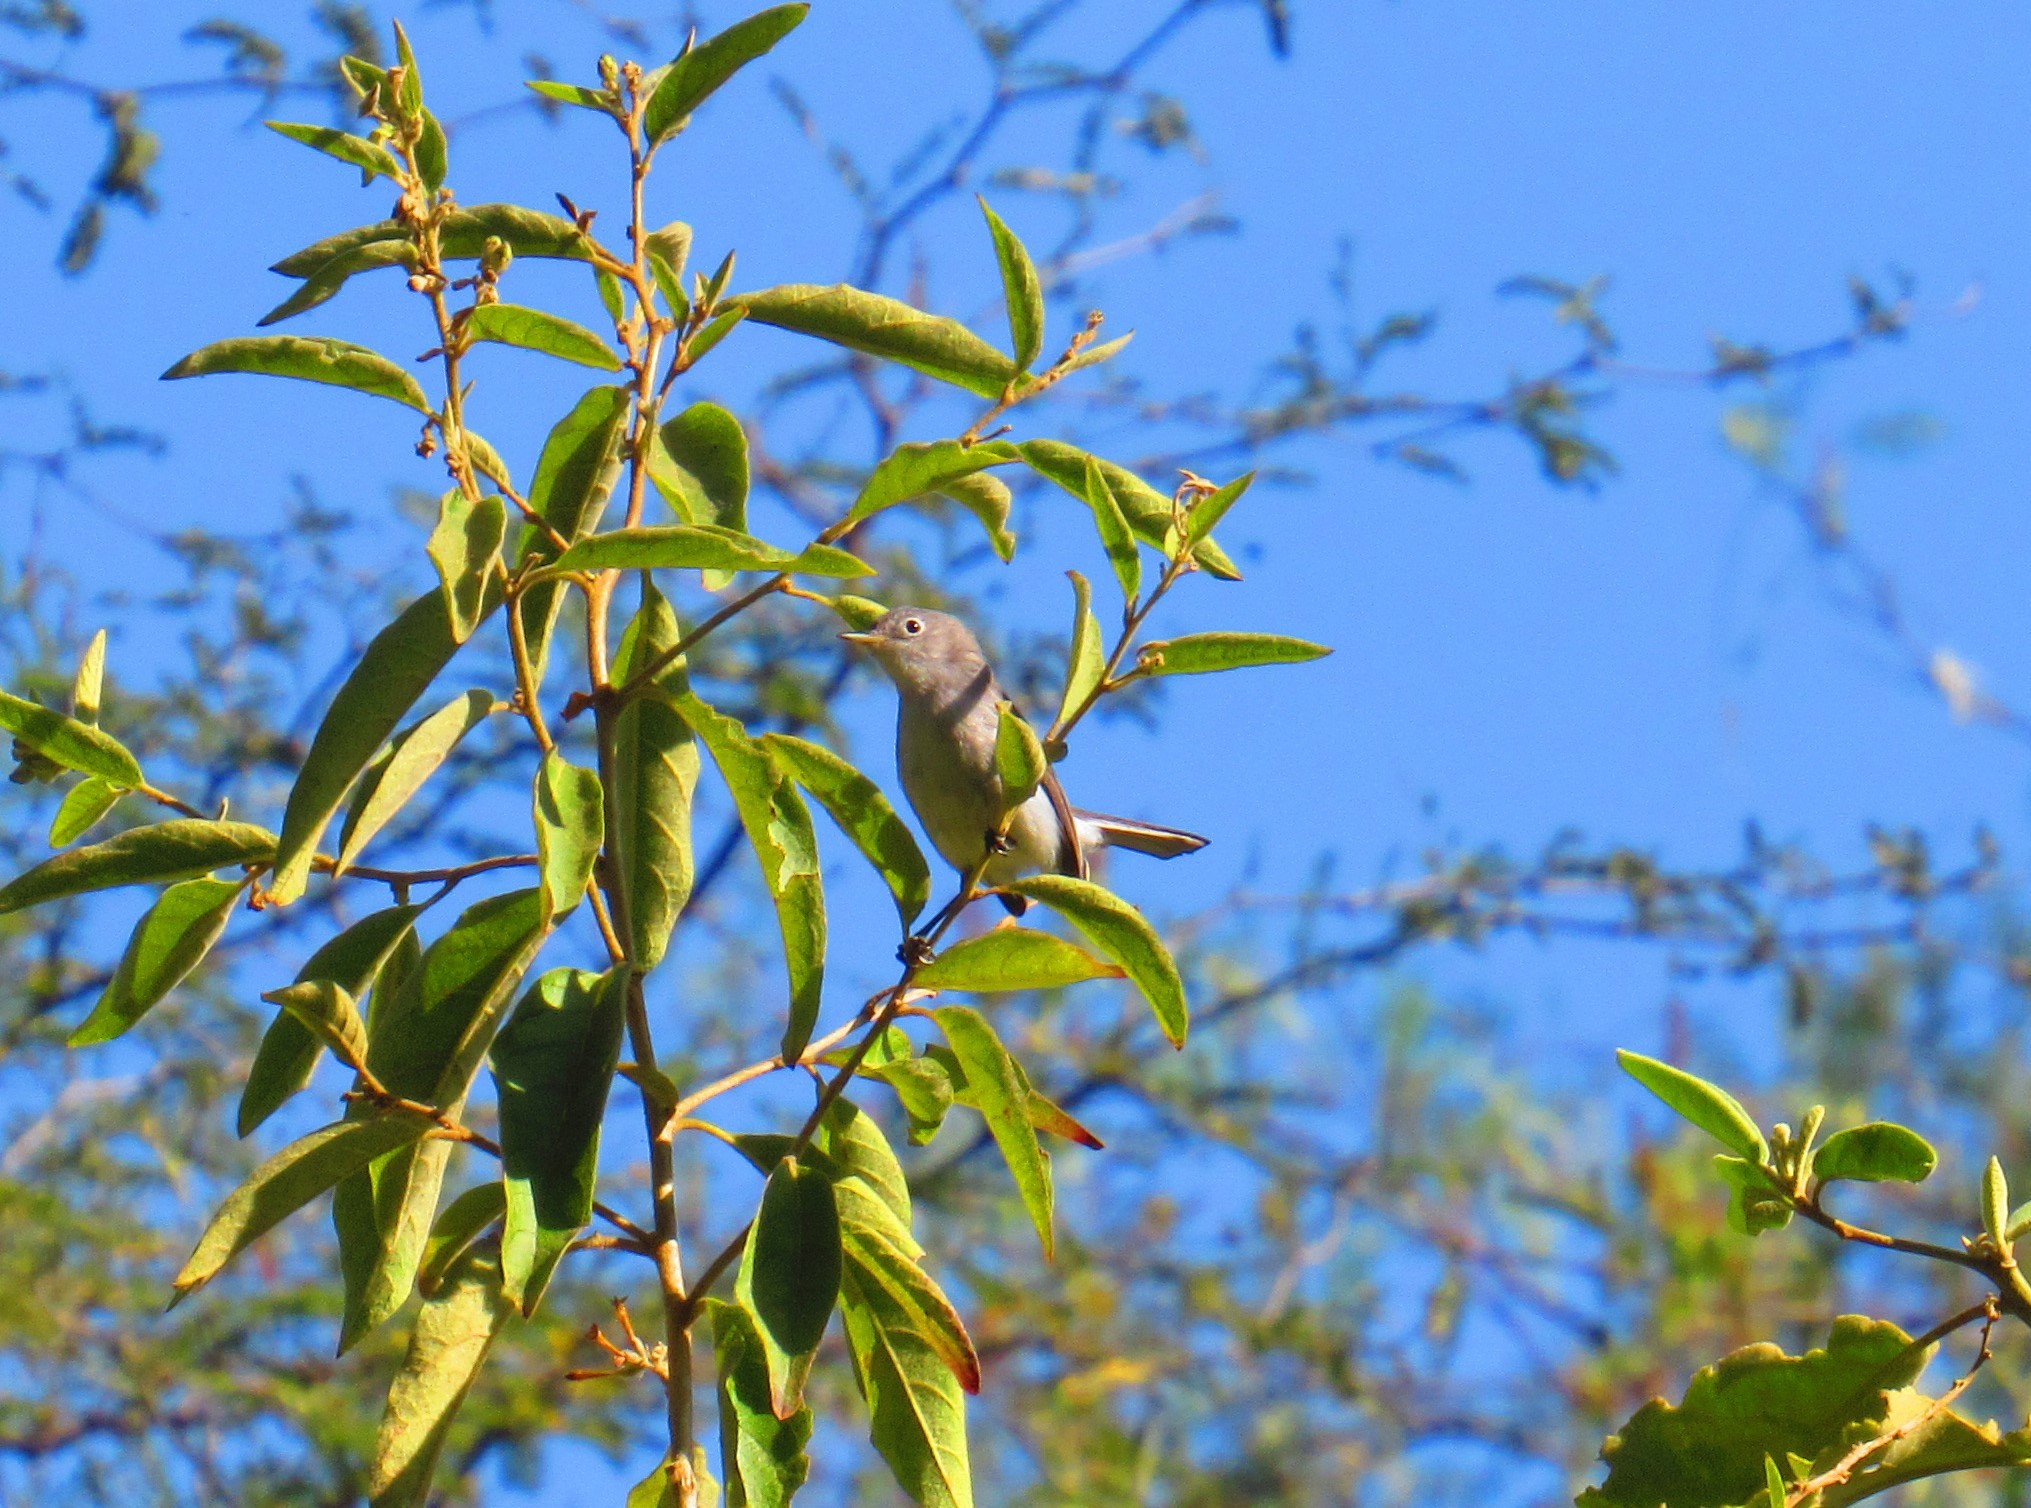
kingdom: Animalia
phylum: Chordata
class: Aves
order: Passeriformes
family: Polioptilidae
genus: Polioptila
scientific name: Polioptila caerulea
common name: Blue-gray gnatcatcher
